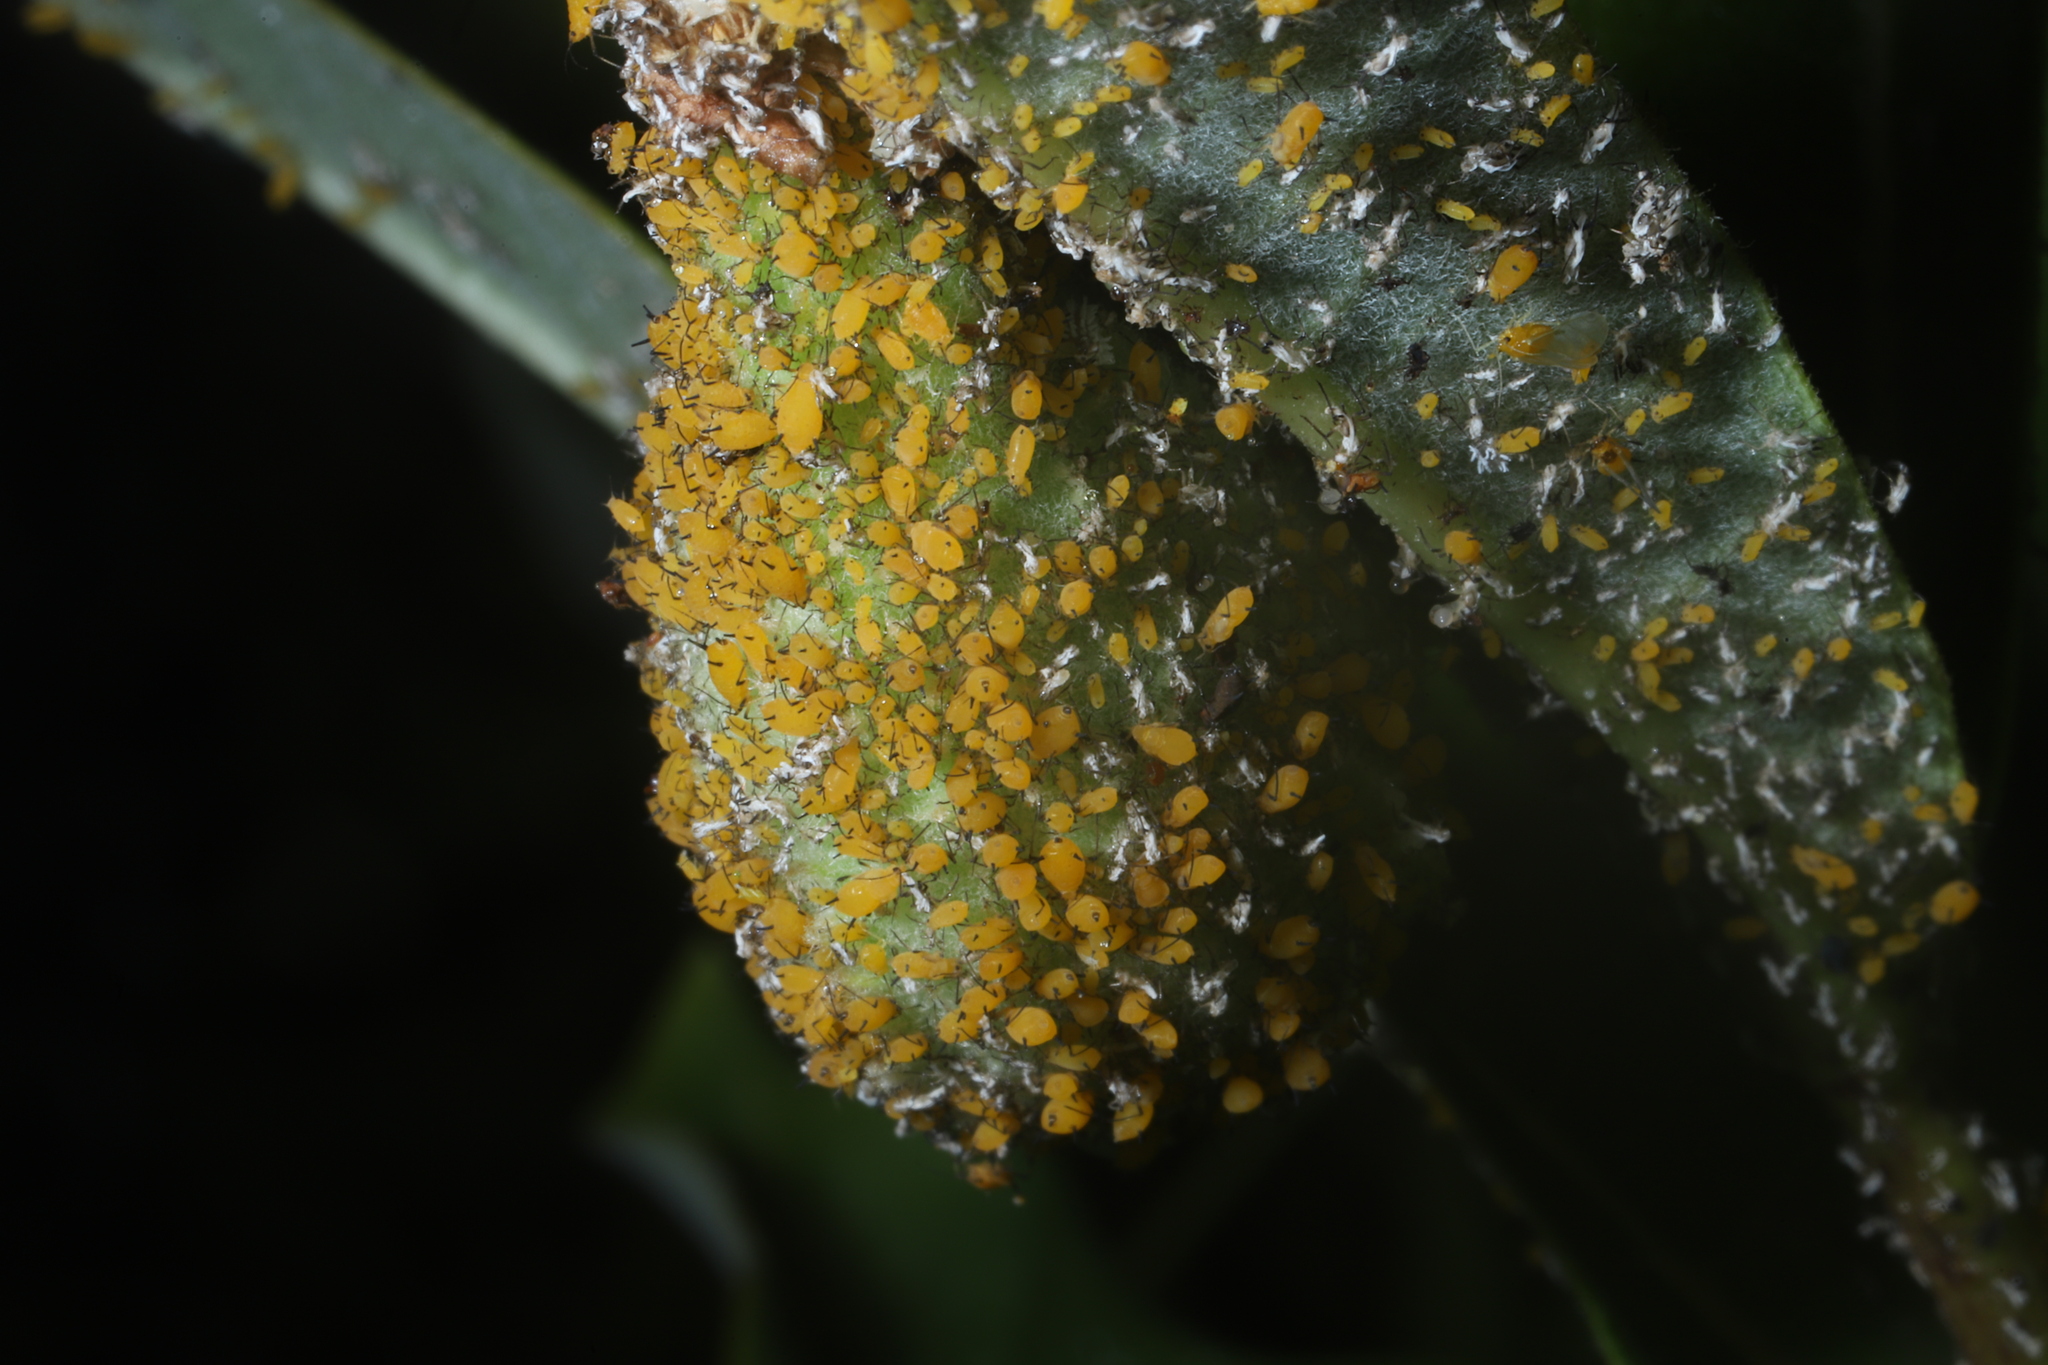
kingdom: Animalia
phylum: Arthropoda
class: Insecta
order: Hemiptera
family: Aphididae
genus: Aphis
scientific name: Aphis nerii
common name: Oleander aphid
